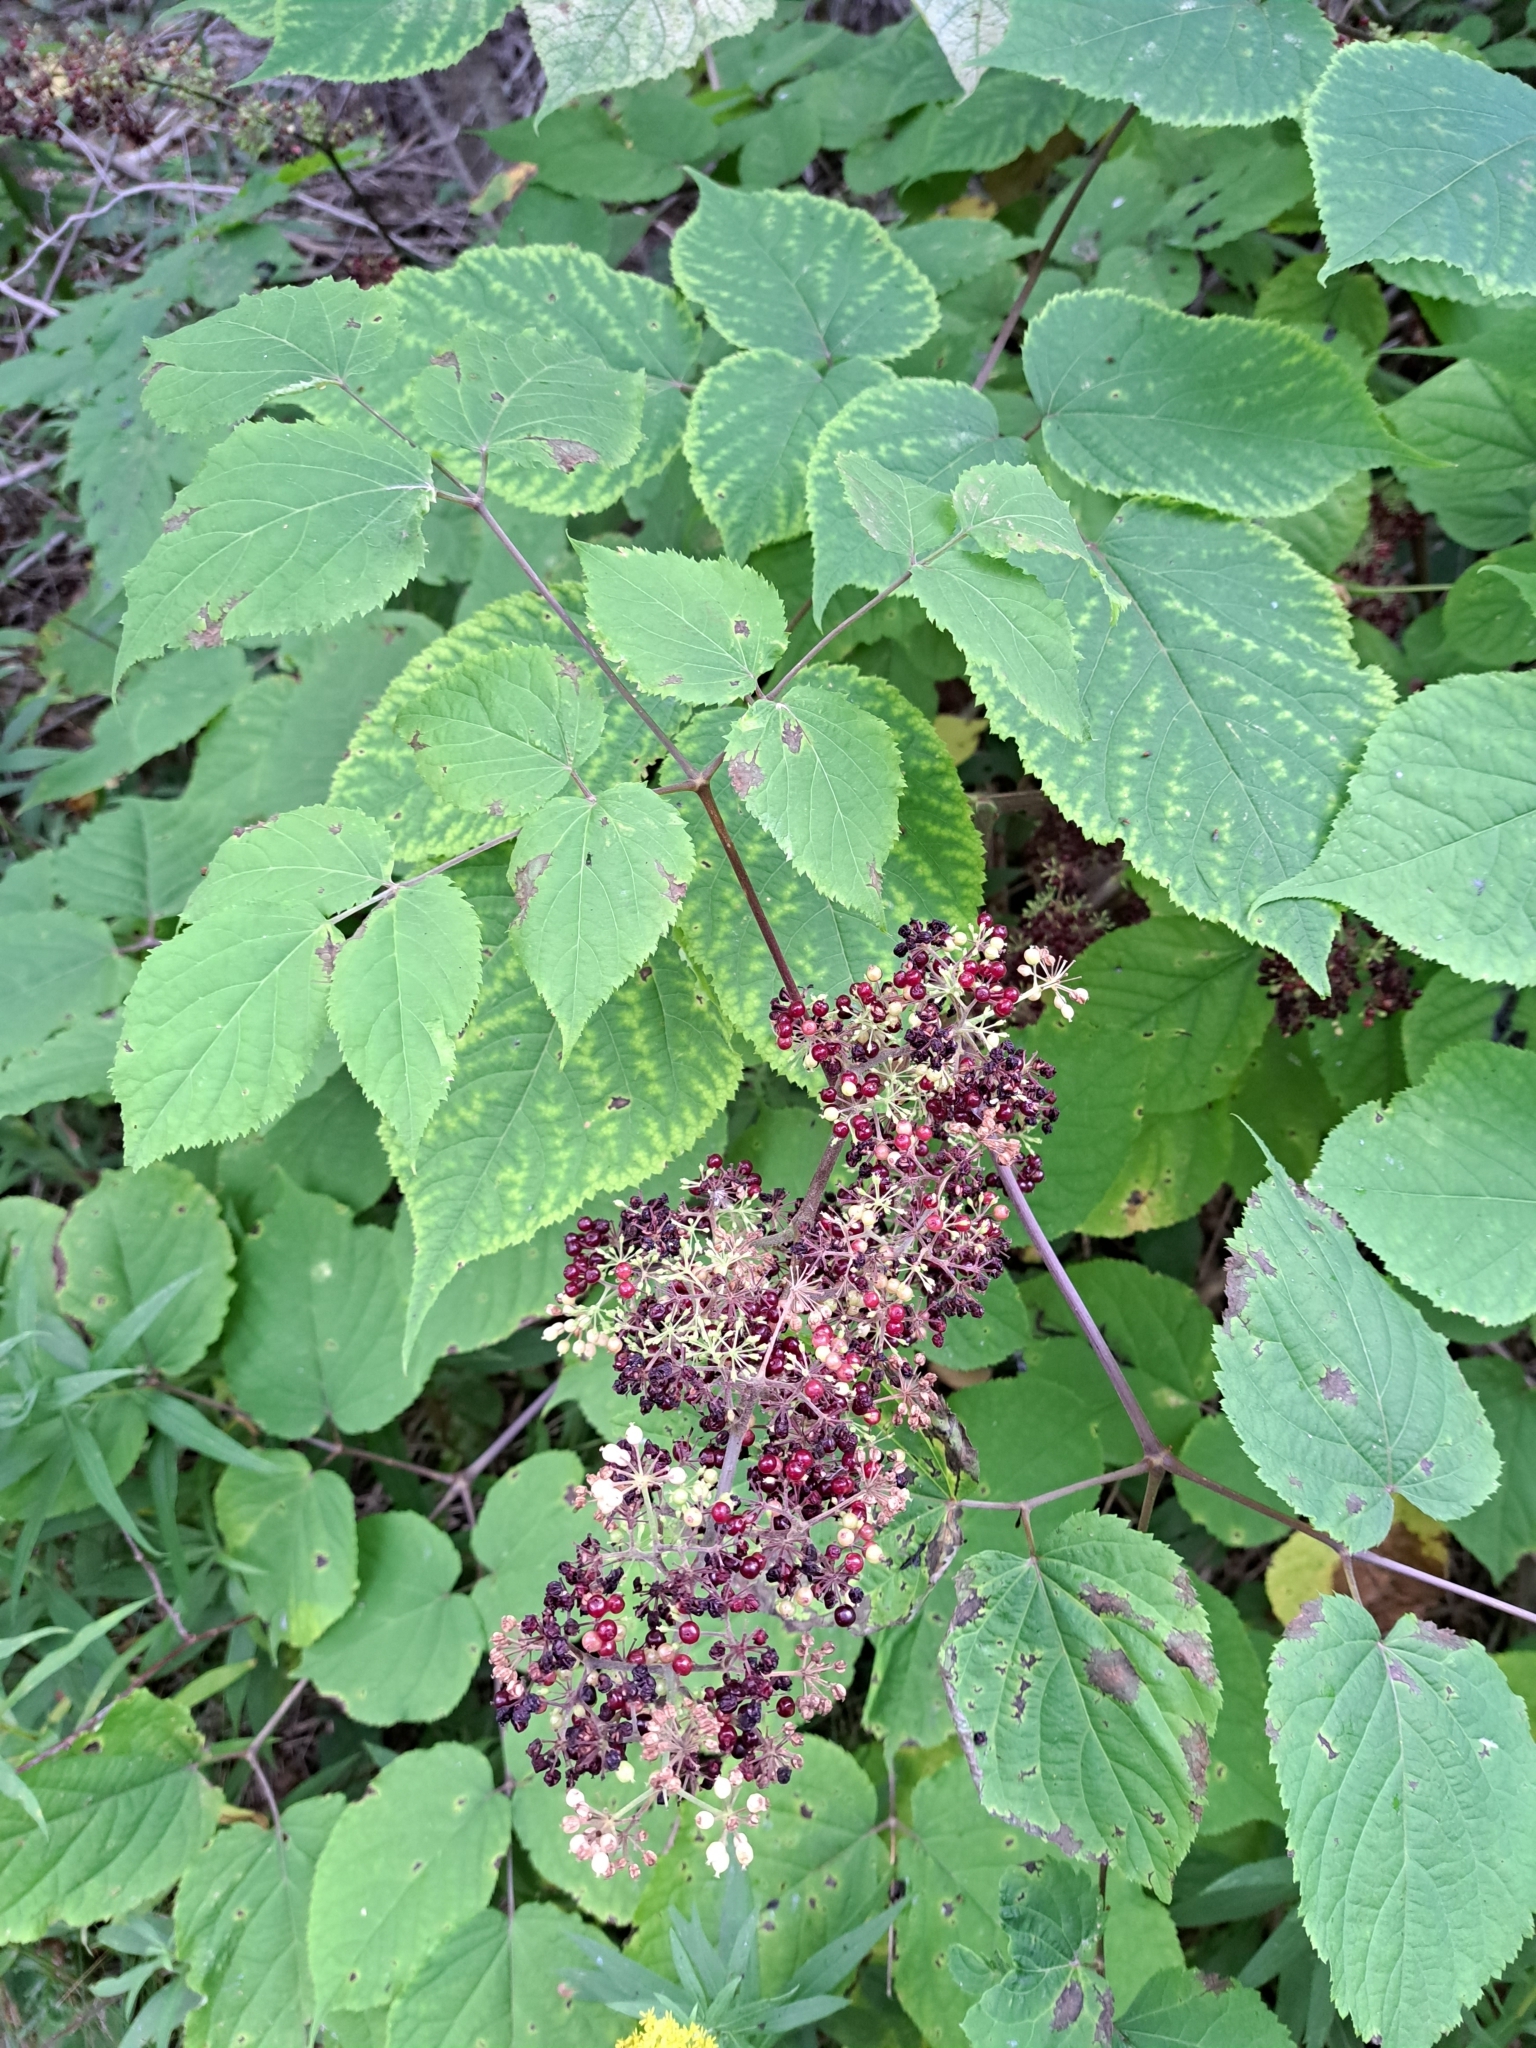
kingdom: Plantae
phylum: Tracheophyta
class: Magnoliopsida
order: Apiales
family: Araliaceae
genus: Aralia
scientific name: Aralia racemosa
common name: American-spikenard
